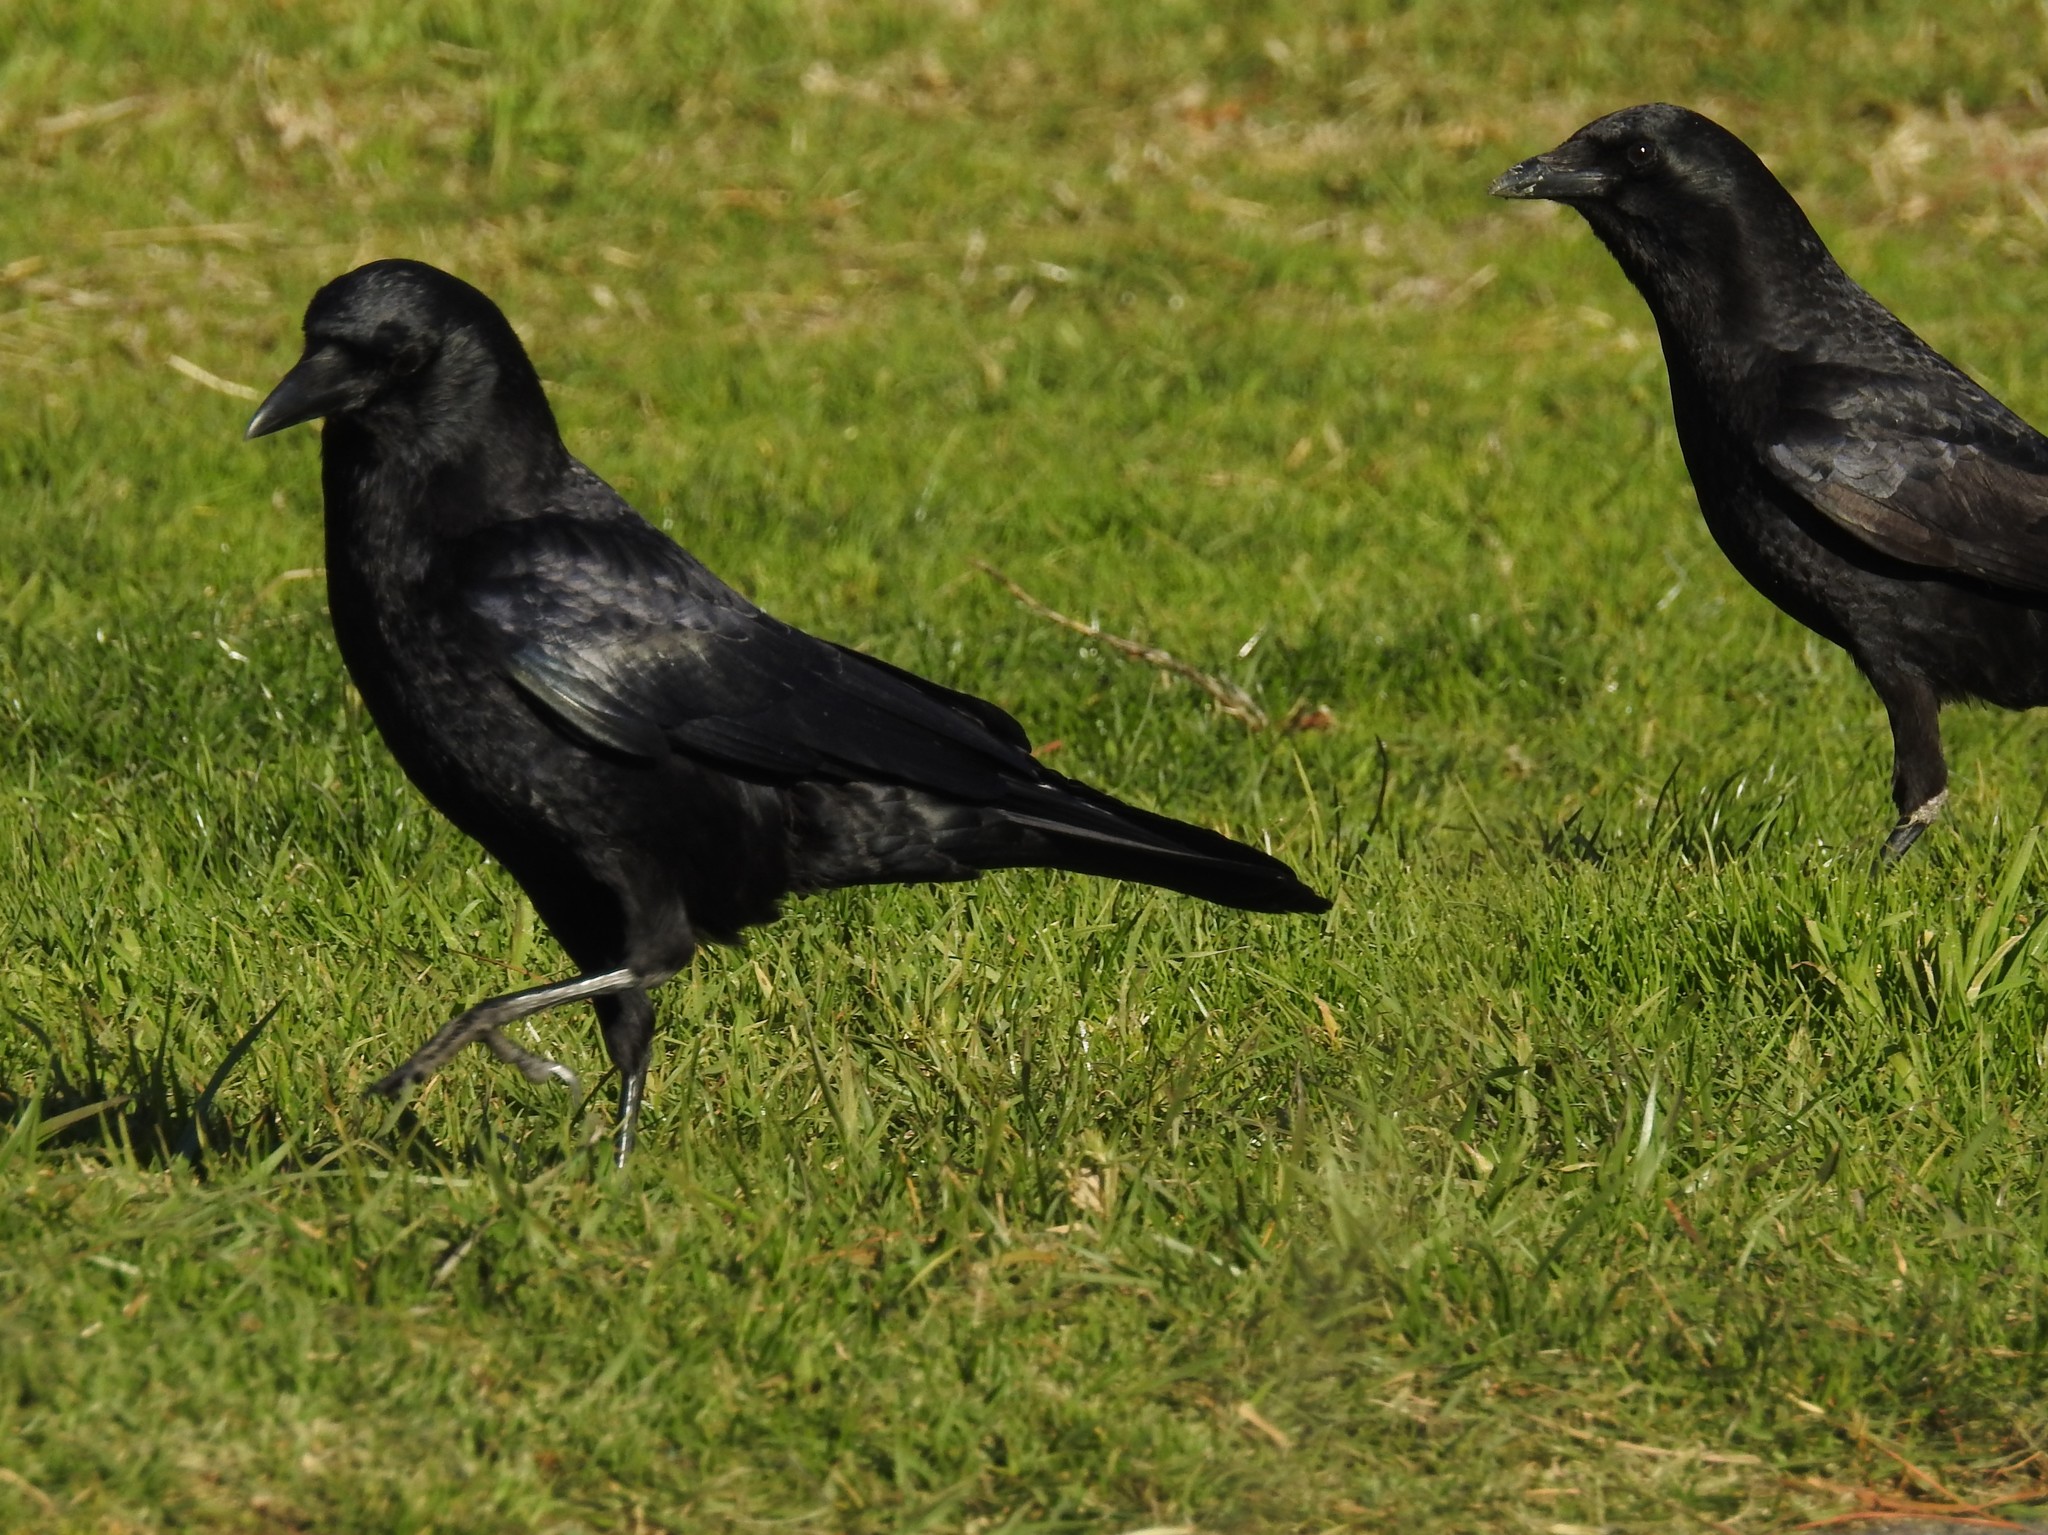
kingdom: Animalia
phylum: Chordata
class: Aves
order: Passeriformes
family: Corvidae
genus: Corvus
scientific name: Corvus brachyrhynchos
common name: American crow
